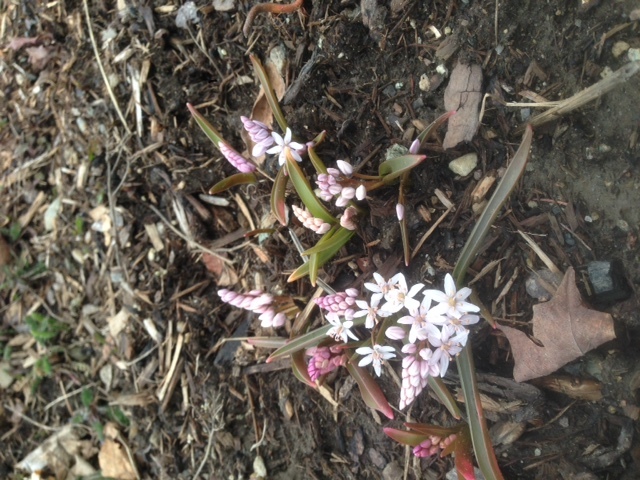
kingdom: Plantae
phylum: Tracheophyta
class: Liliopsida
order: Asparagales
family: Asparagaceae
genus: Scilla
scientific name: Scilla bifolia
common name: Alpine squill
